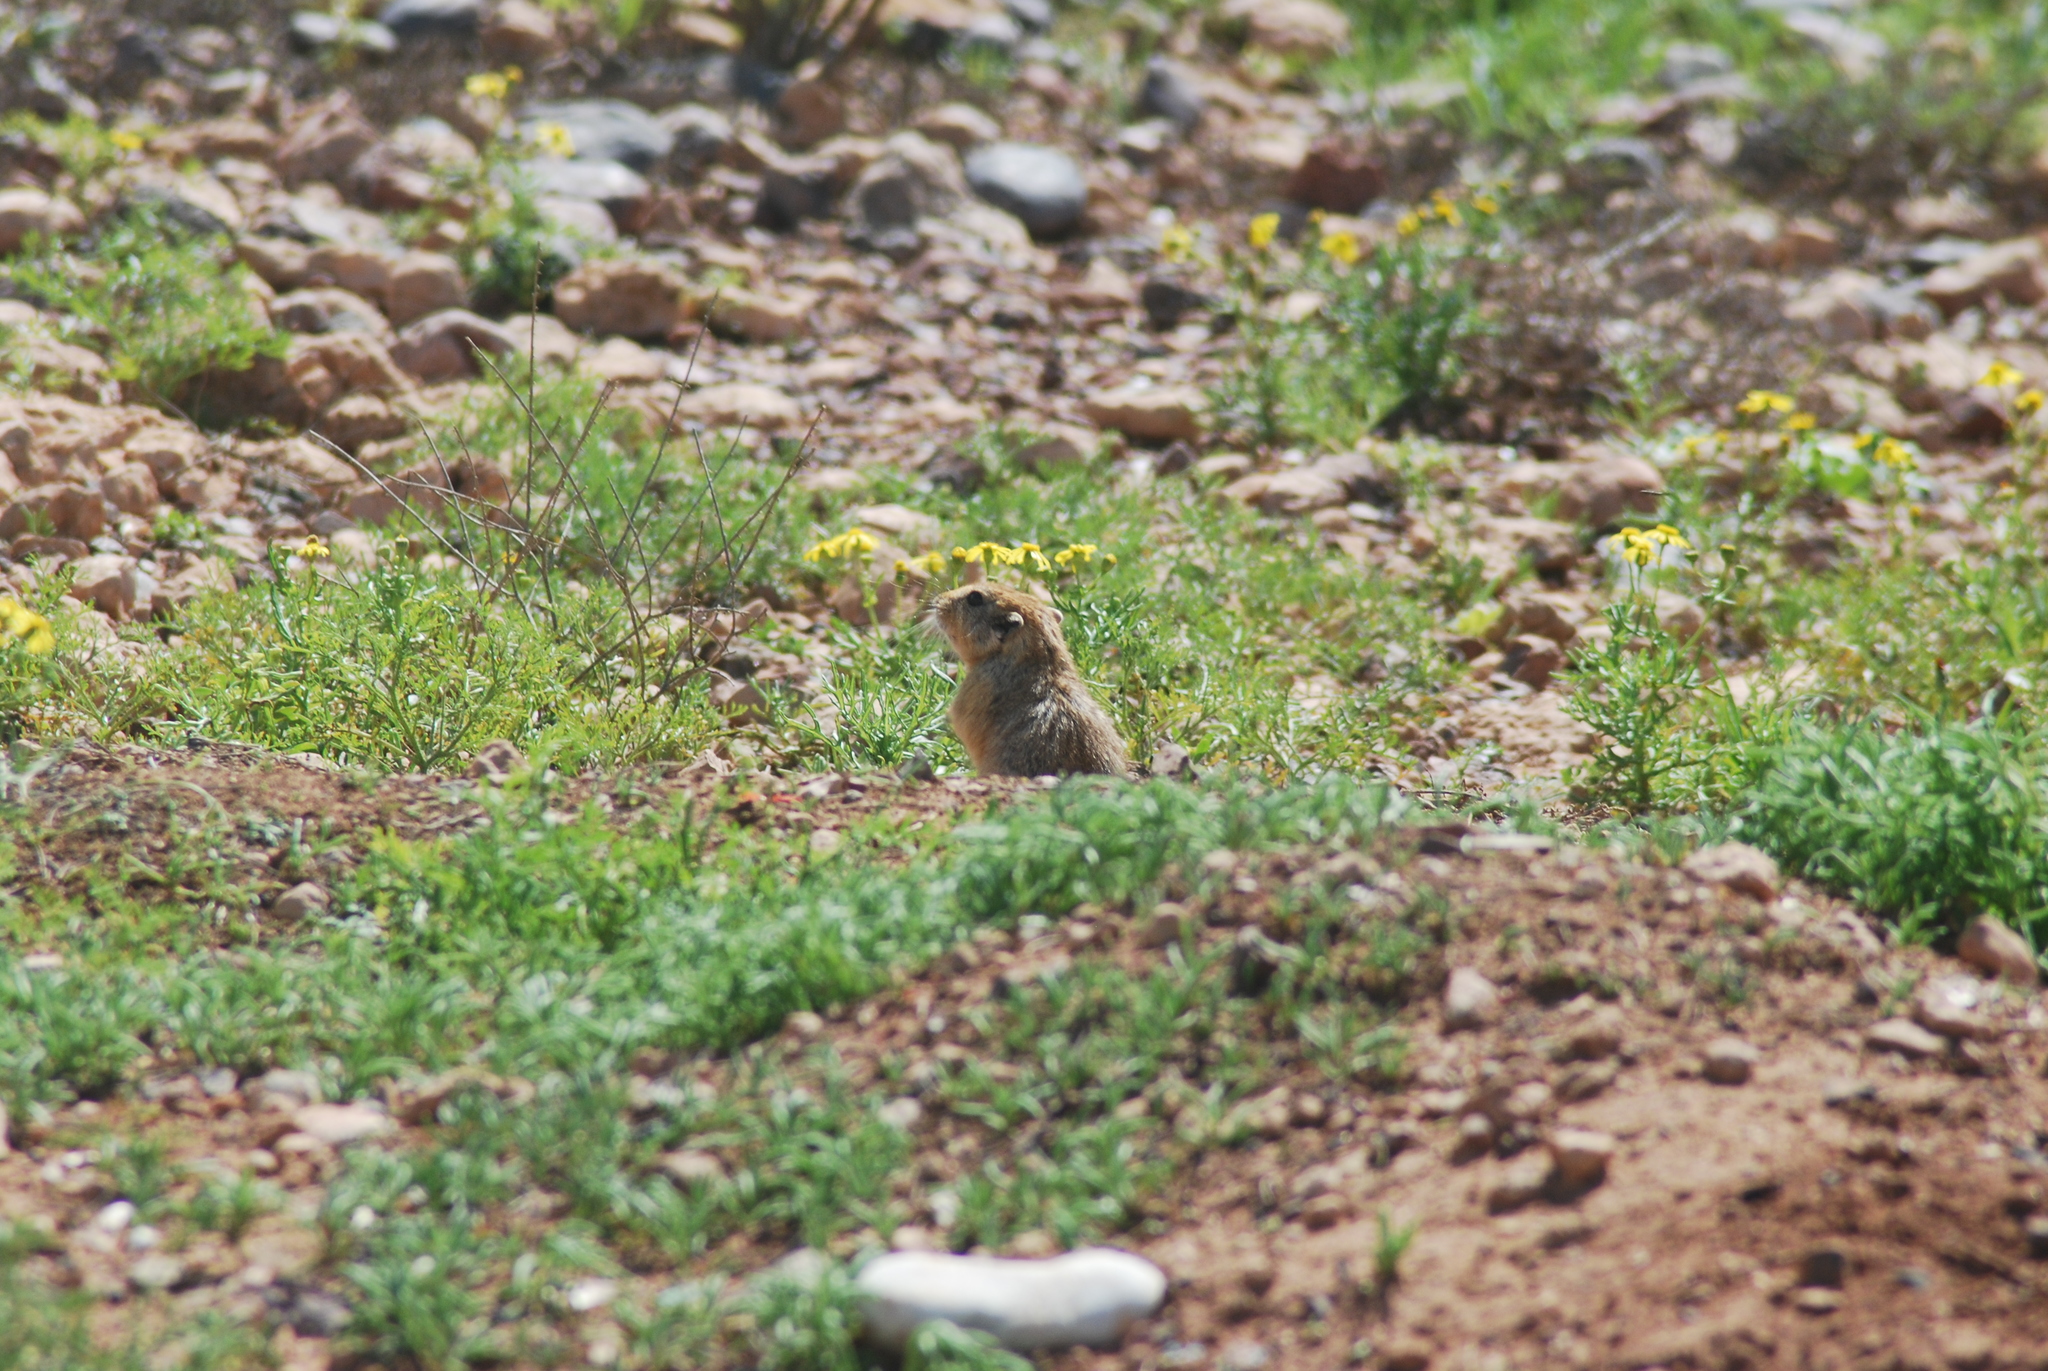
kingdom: Animalia
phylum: Chordata
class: Mammalia
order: Rodentia
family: Sciuridae
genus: Atlantoxerus
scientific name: Atlantoxerus getulus
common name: Barbary ground squirrel
